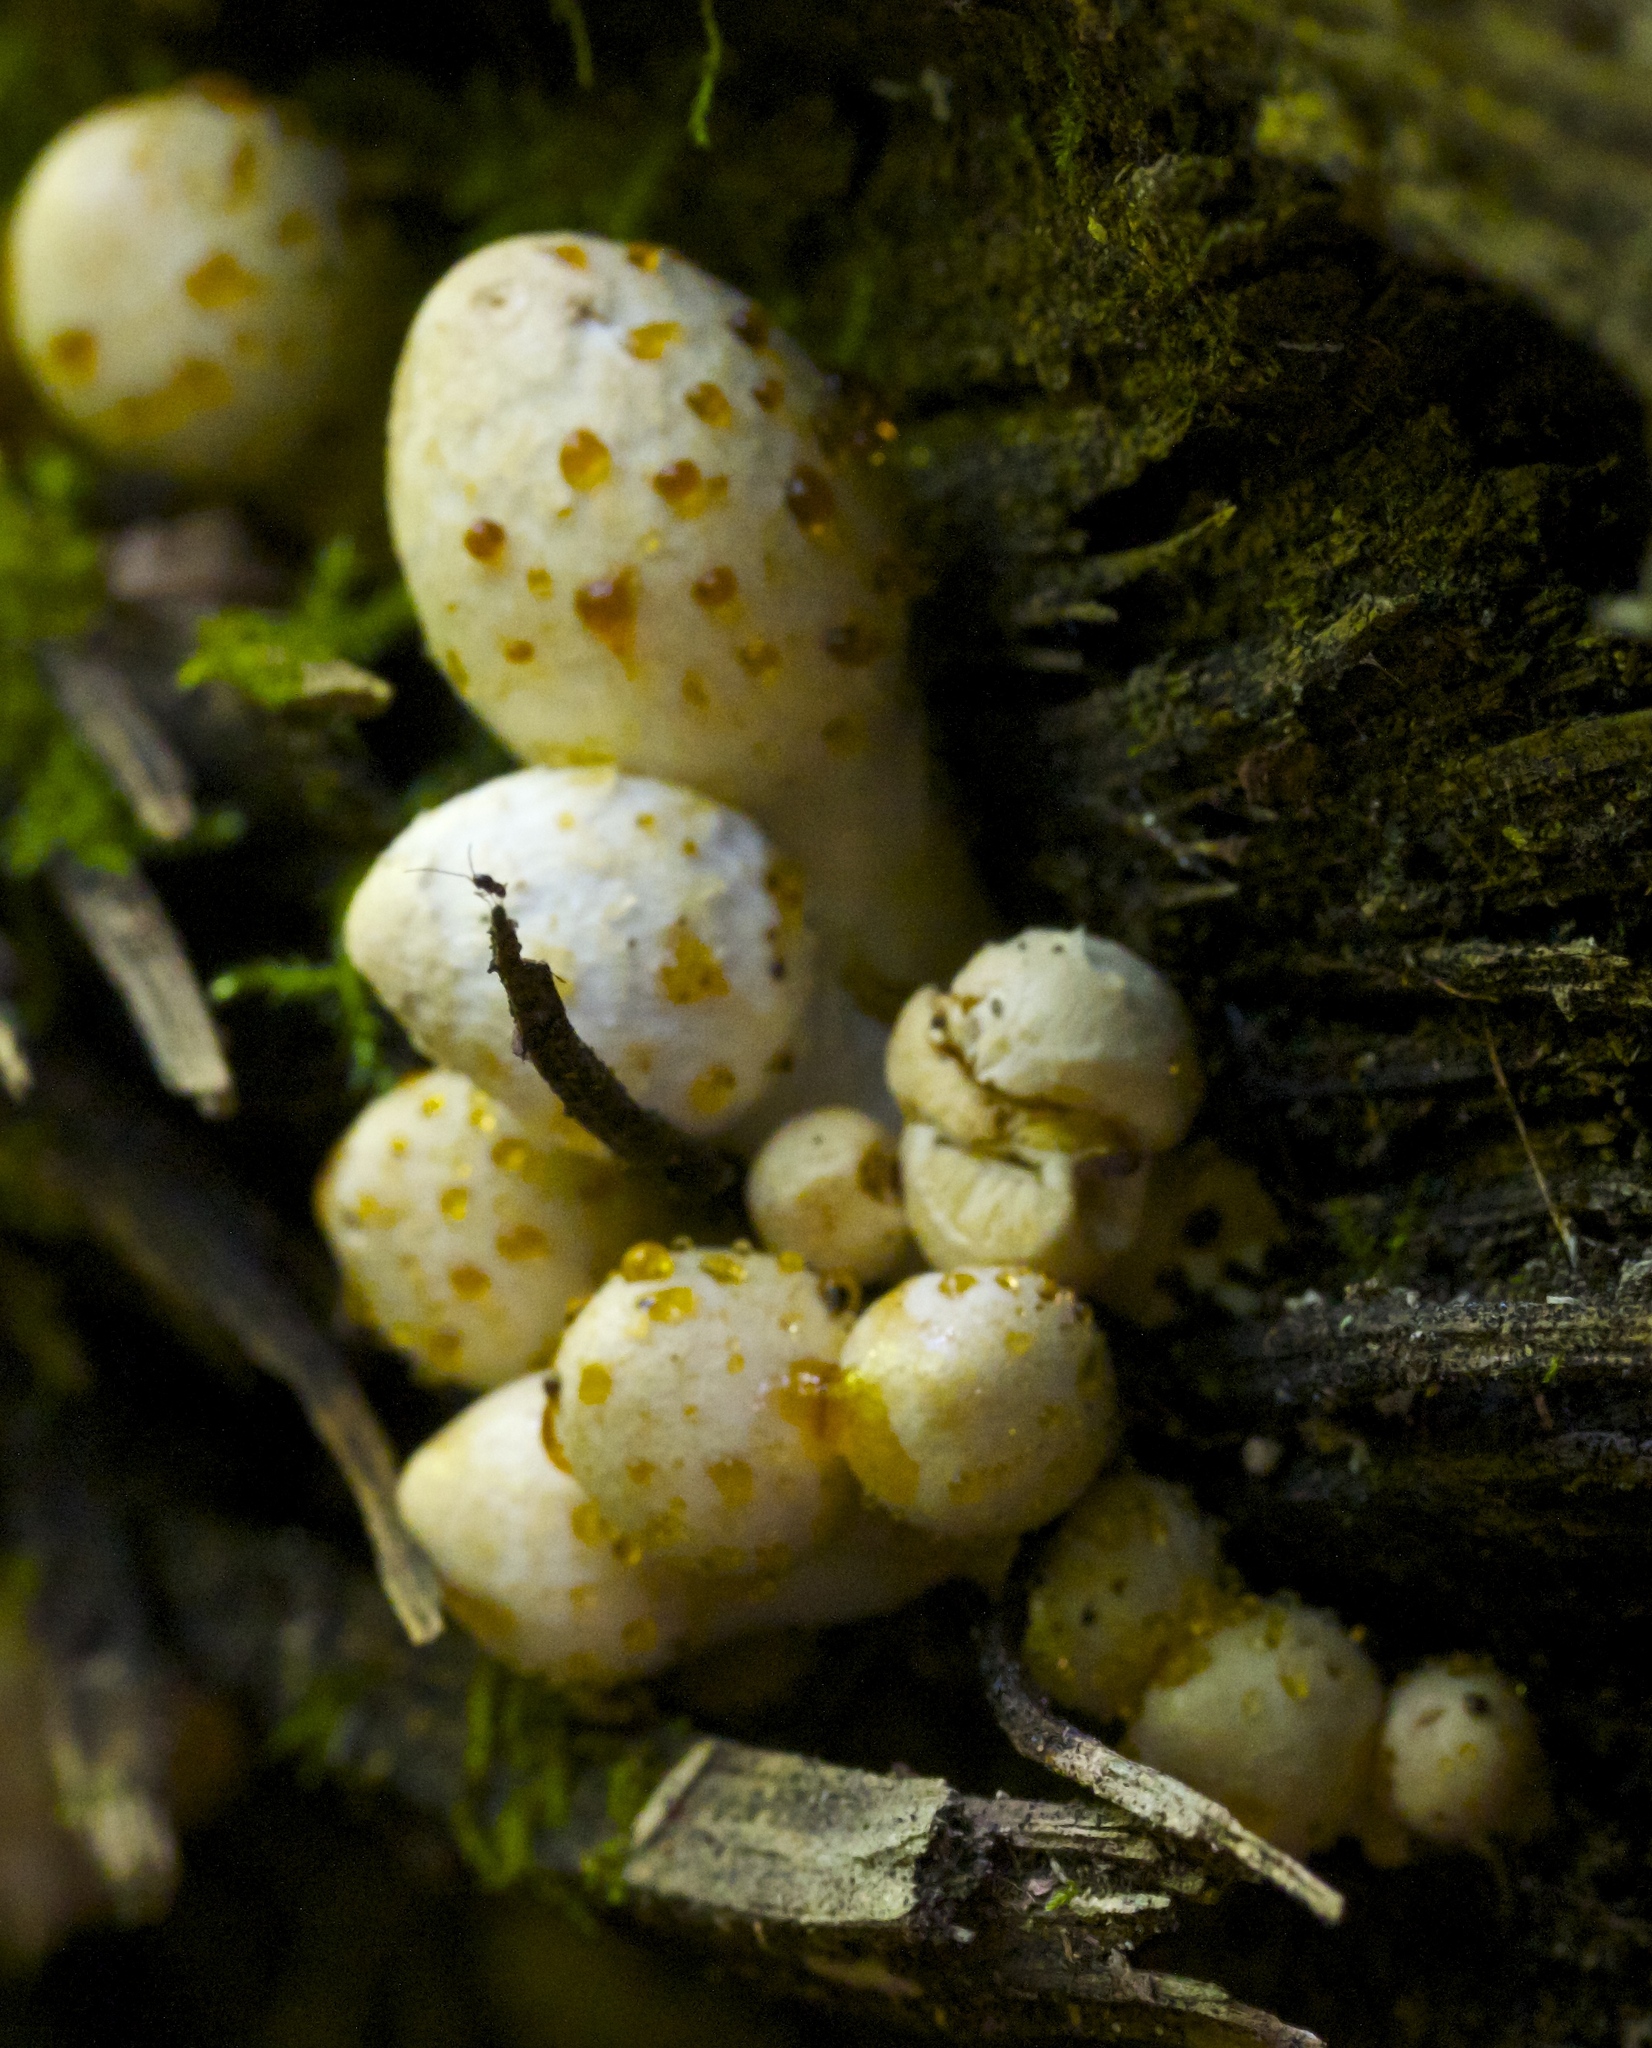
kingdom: Fungi
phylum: Basidiomycota
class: Agaricomycetes
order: Agaricales
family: Psathyrellaceae
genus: Coprinopsis
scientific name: Coprinopsis variegata
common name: Scaly ink cap
